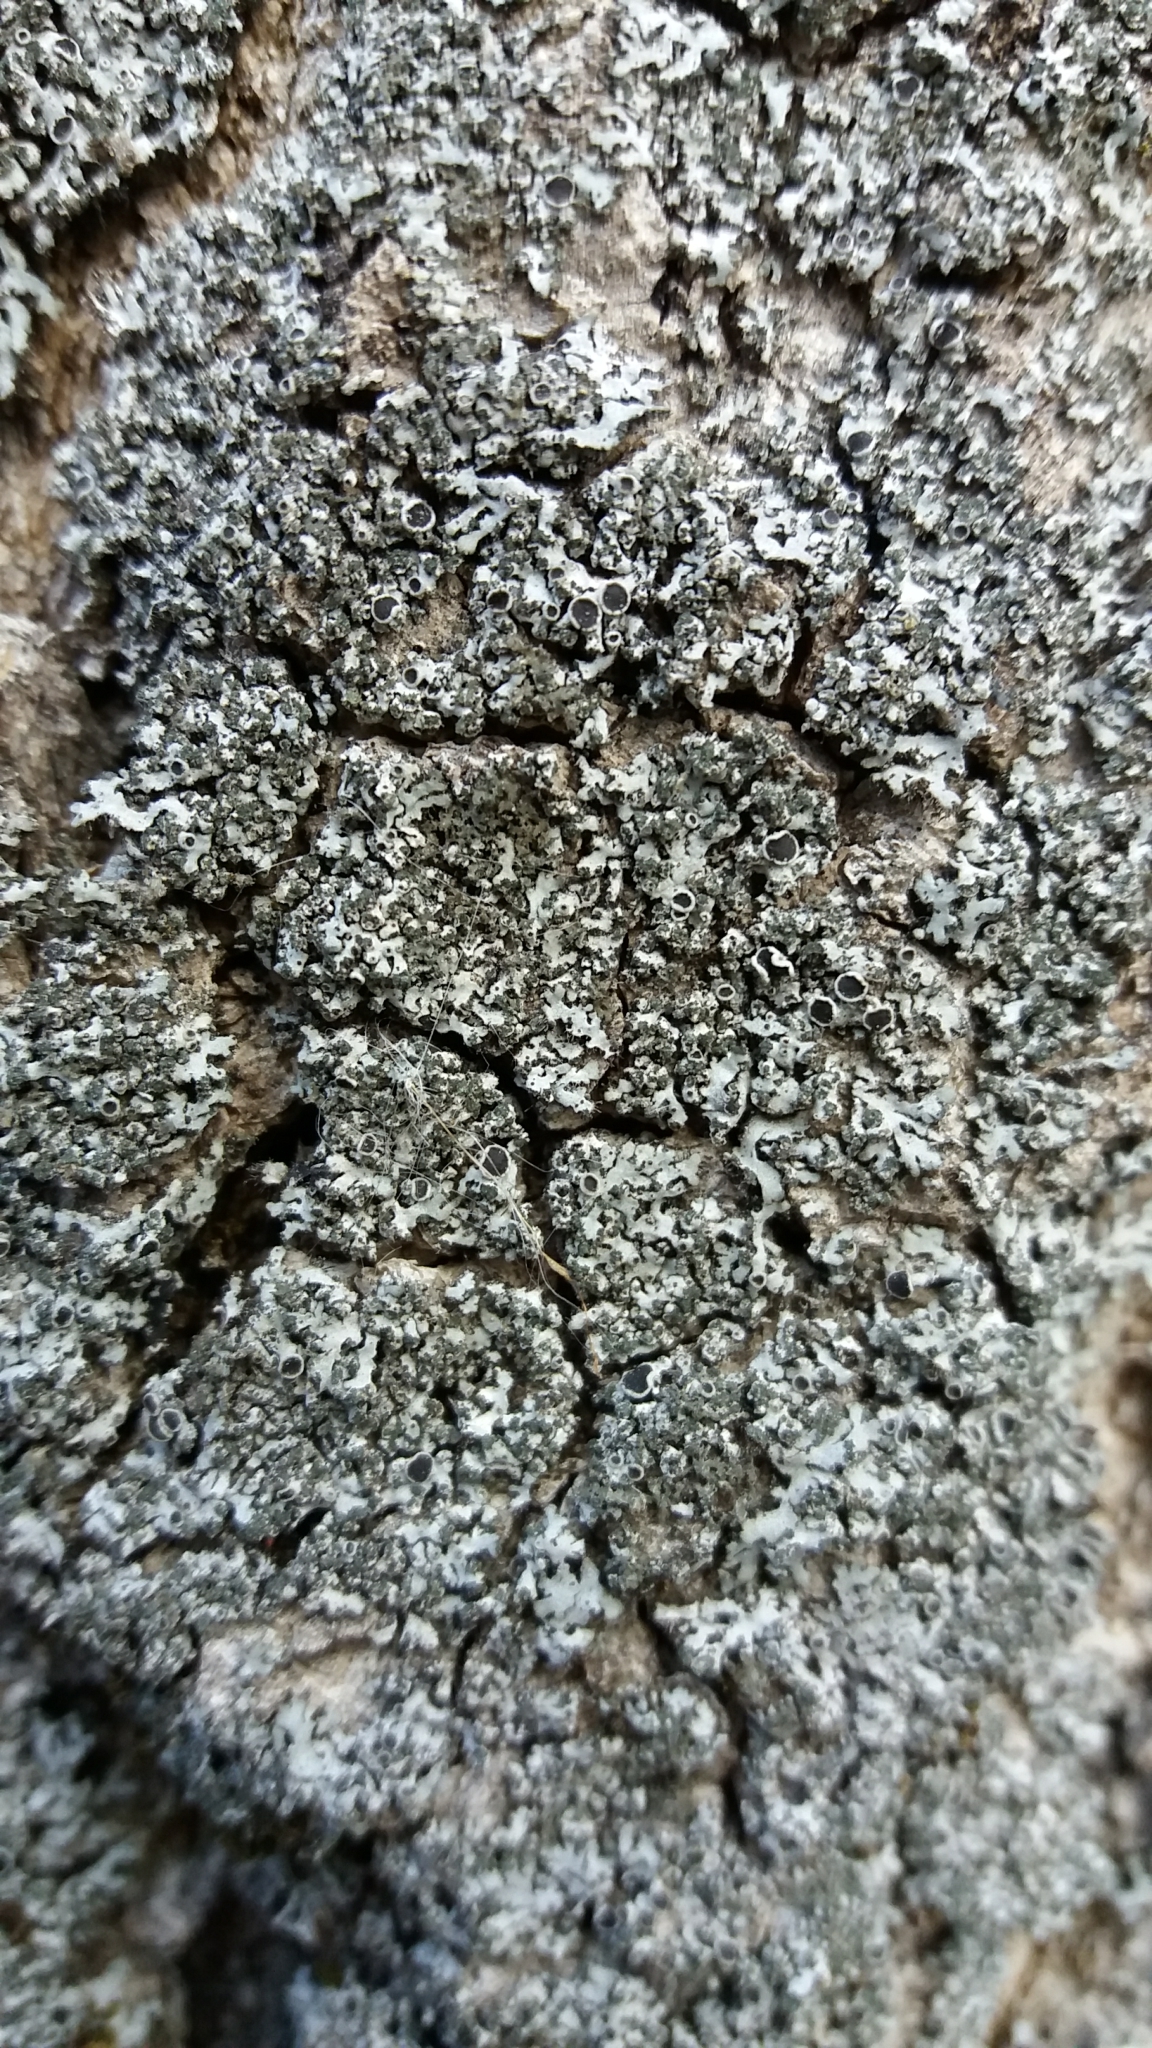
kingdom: Fungi
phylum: Ascomycota
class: Lecanoromycetes
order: Caliciales
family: Physciaceae
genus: Phaeophyscia
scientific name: Phaeophyscia orbicularis
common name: Mealy shadow lichen
